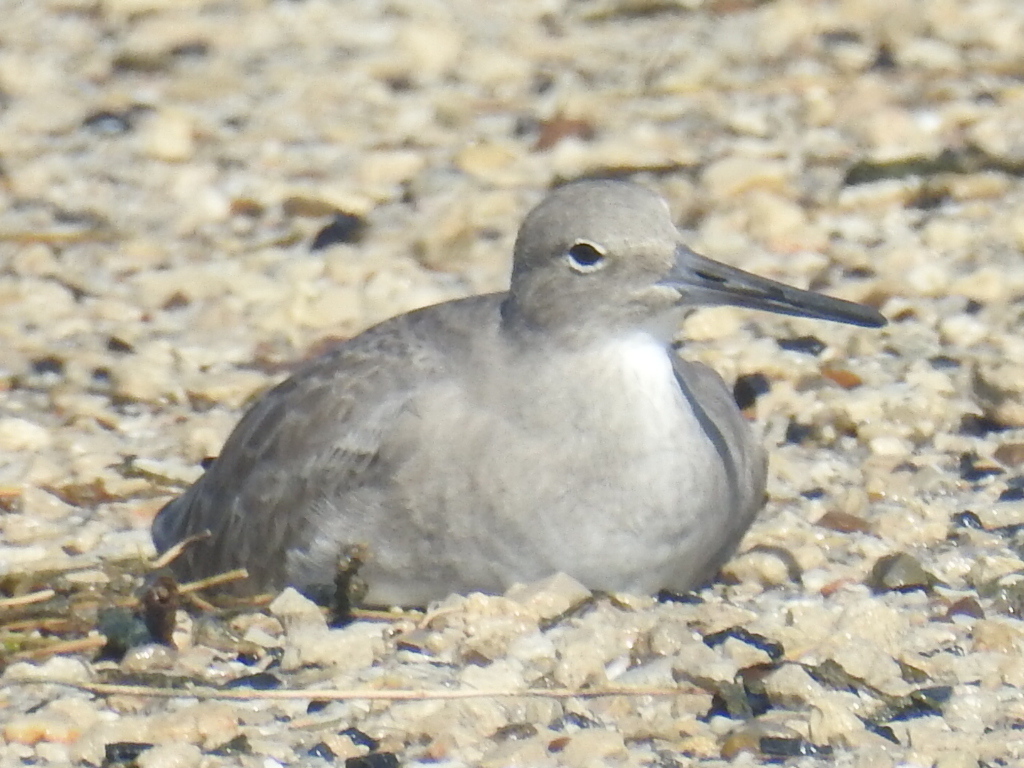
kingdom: Animalia
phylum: Chordata
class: Aves
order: Charadriiformes
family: Scolopacidae
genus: Tringa
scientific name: Tringa semipalmata
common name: Willet
